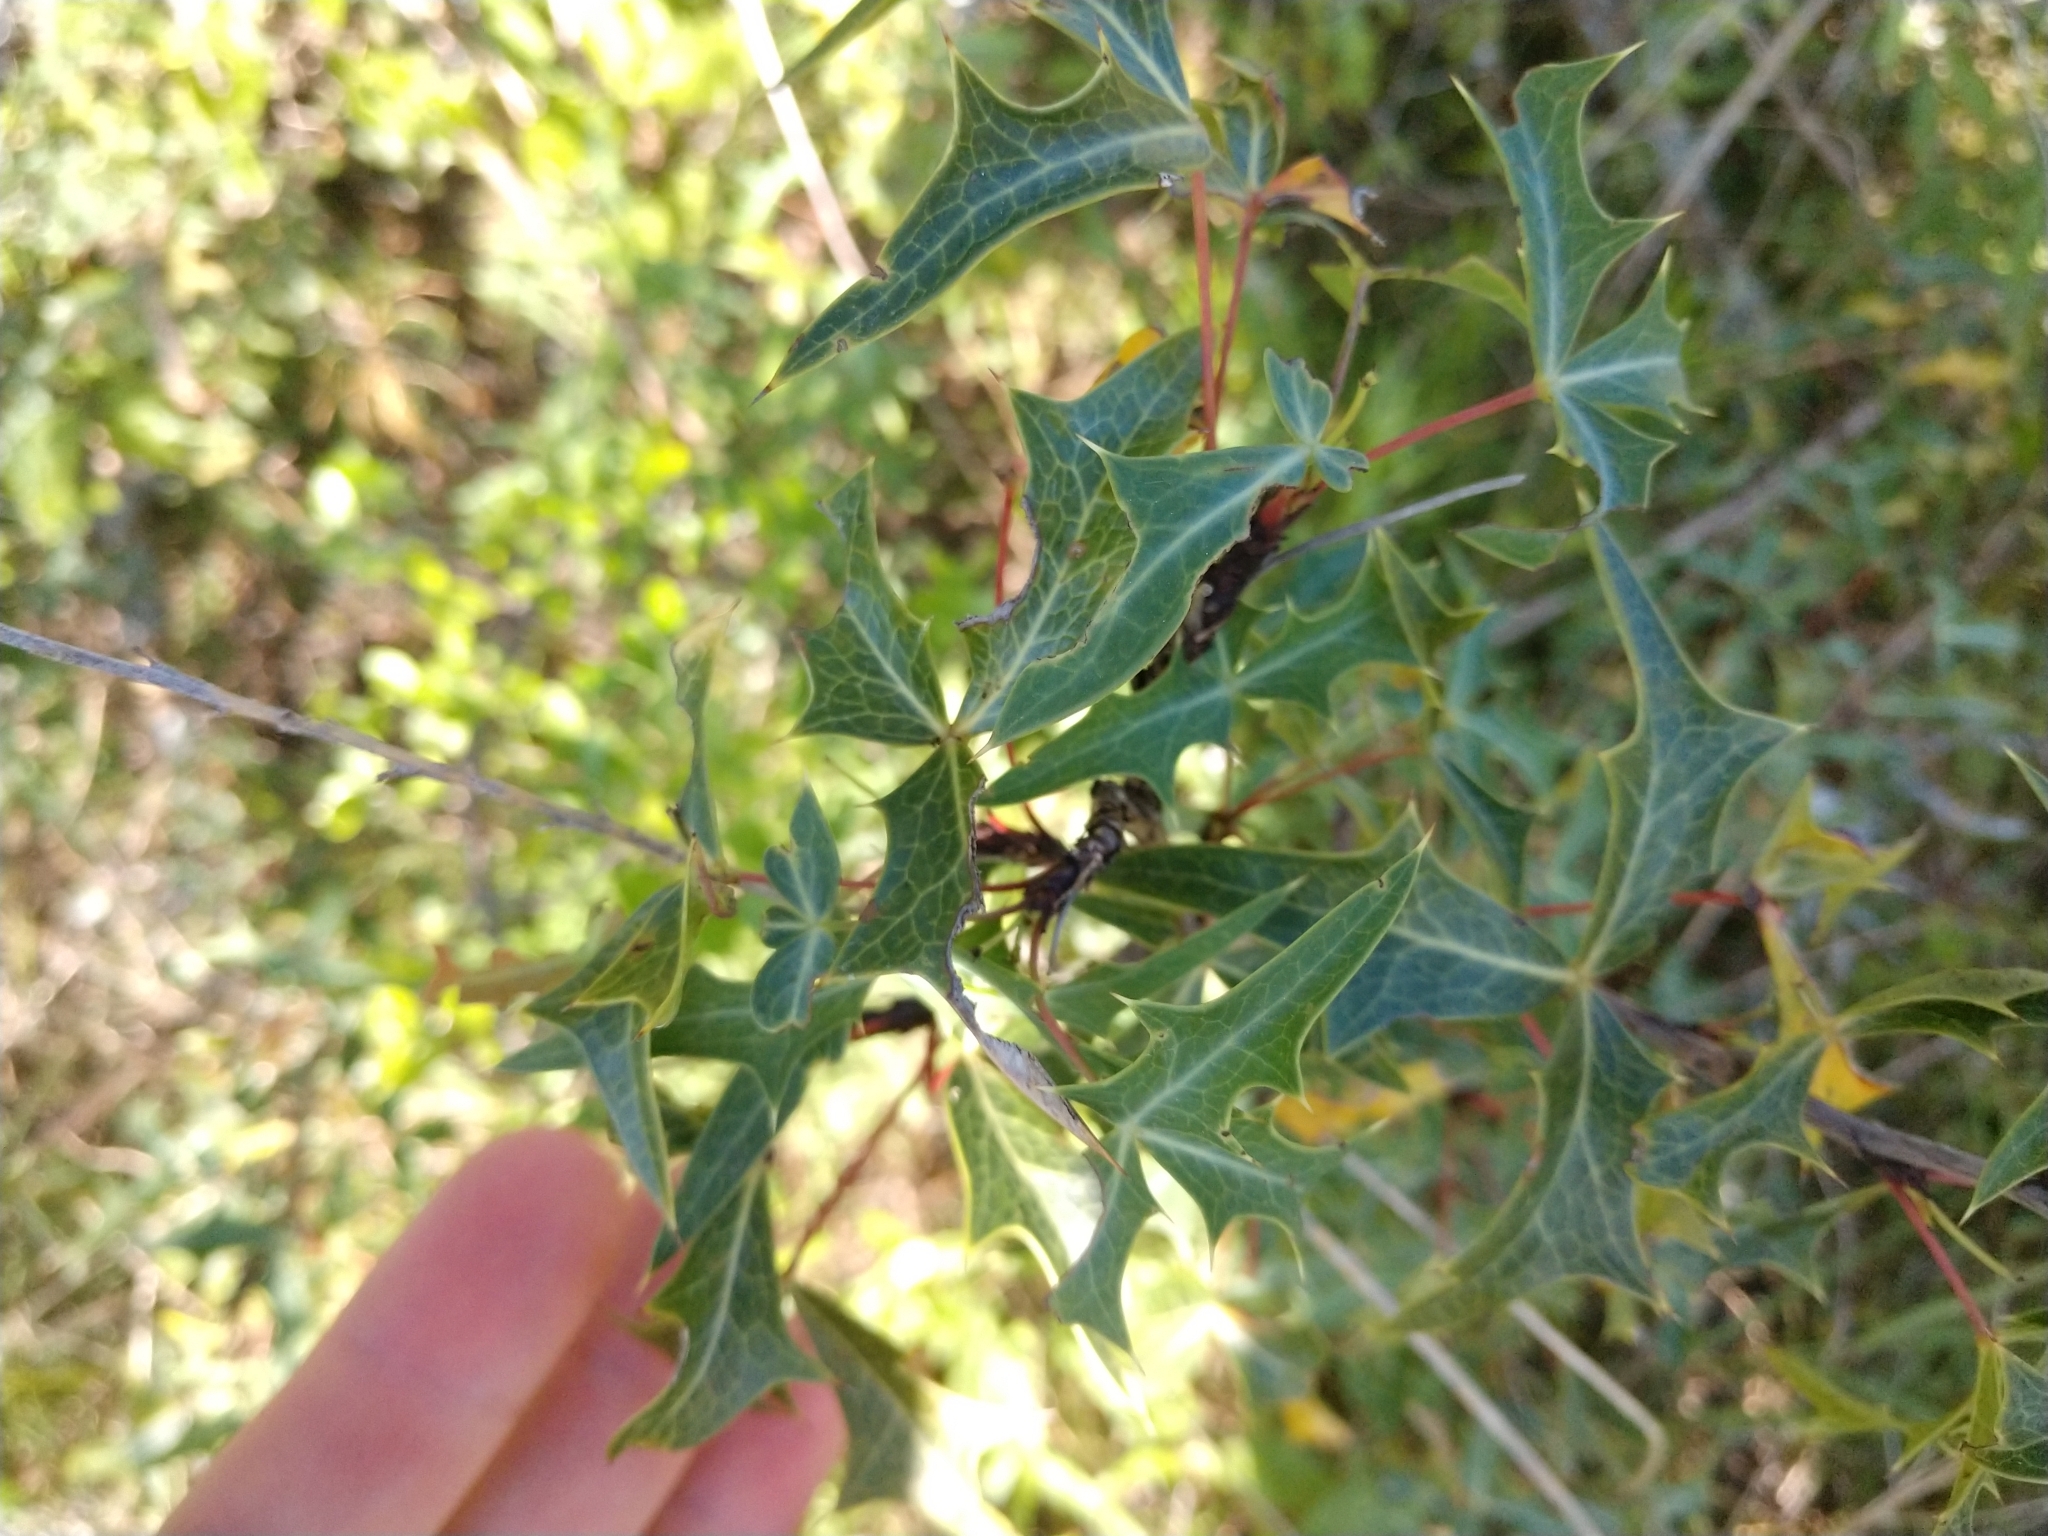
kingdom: Plantae
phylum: Tracheophyta
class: Magnoliopsida
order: Ranunculales
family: Berberidaceae
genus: Alloberberis
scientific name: Alloberberis trifoliolata
